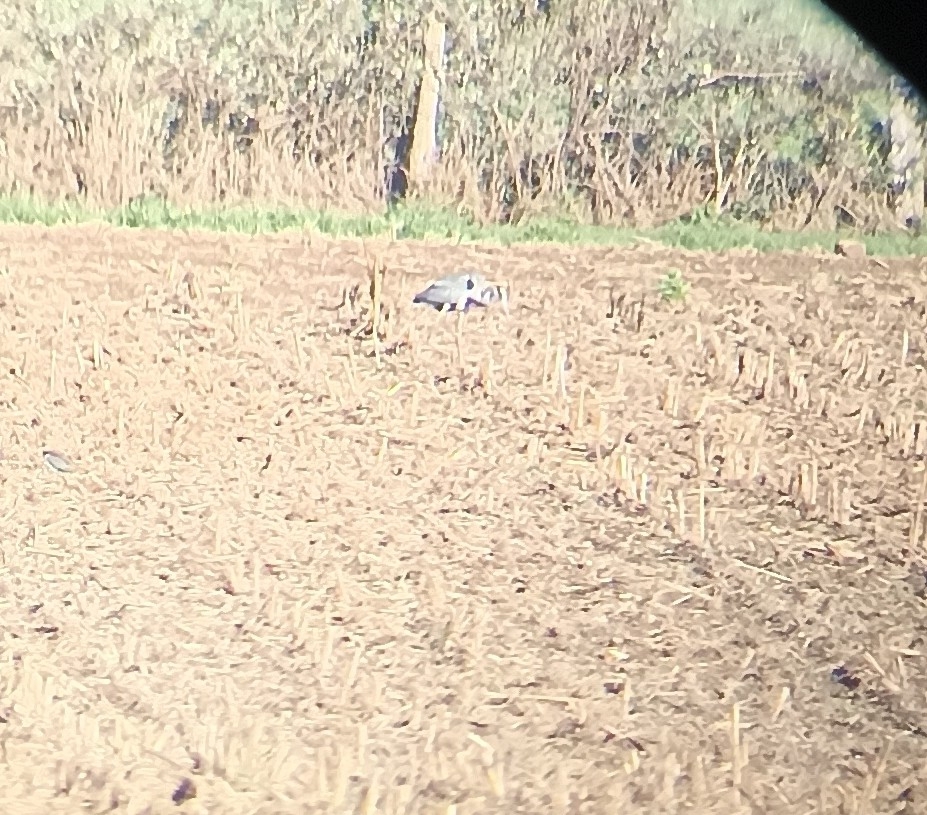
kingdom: Animalia
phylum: Chordata
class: Aves
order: Pelecaniformes
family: Ardeidae
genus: Ardea
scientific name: Ardea cinerea
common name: Grey heron
